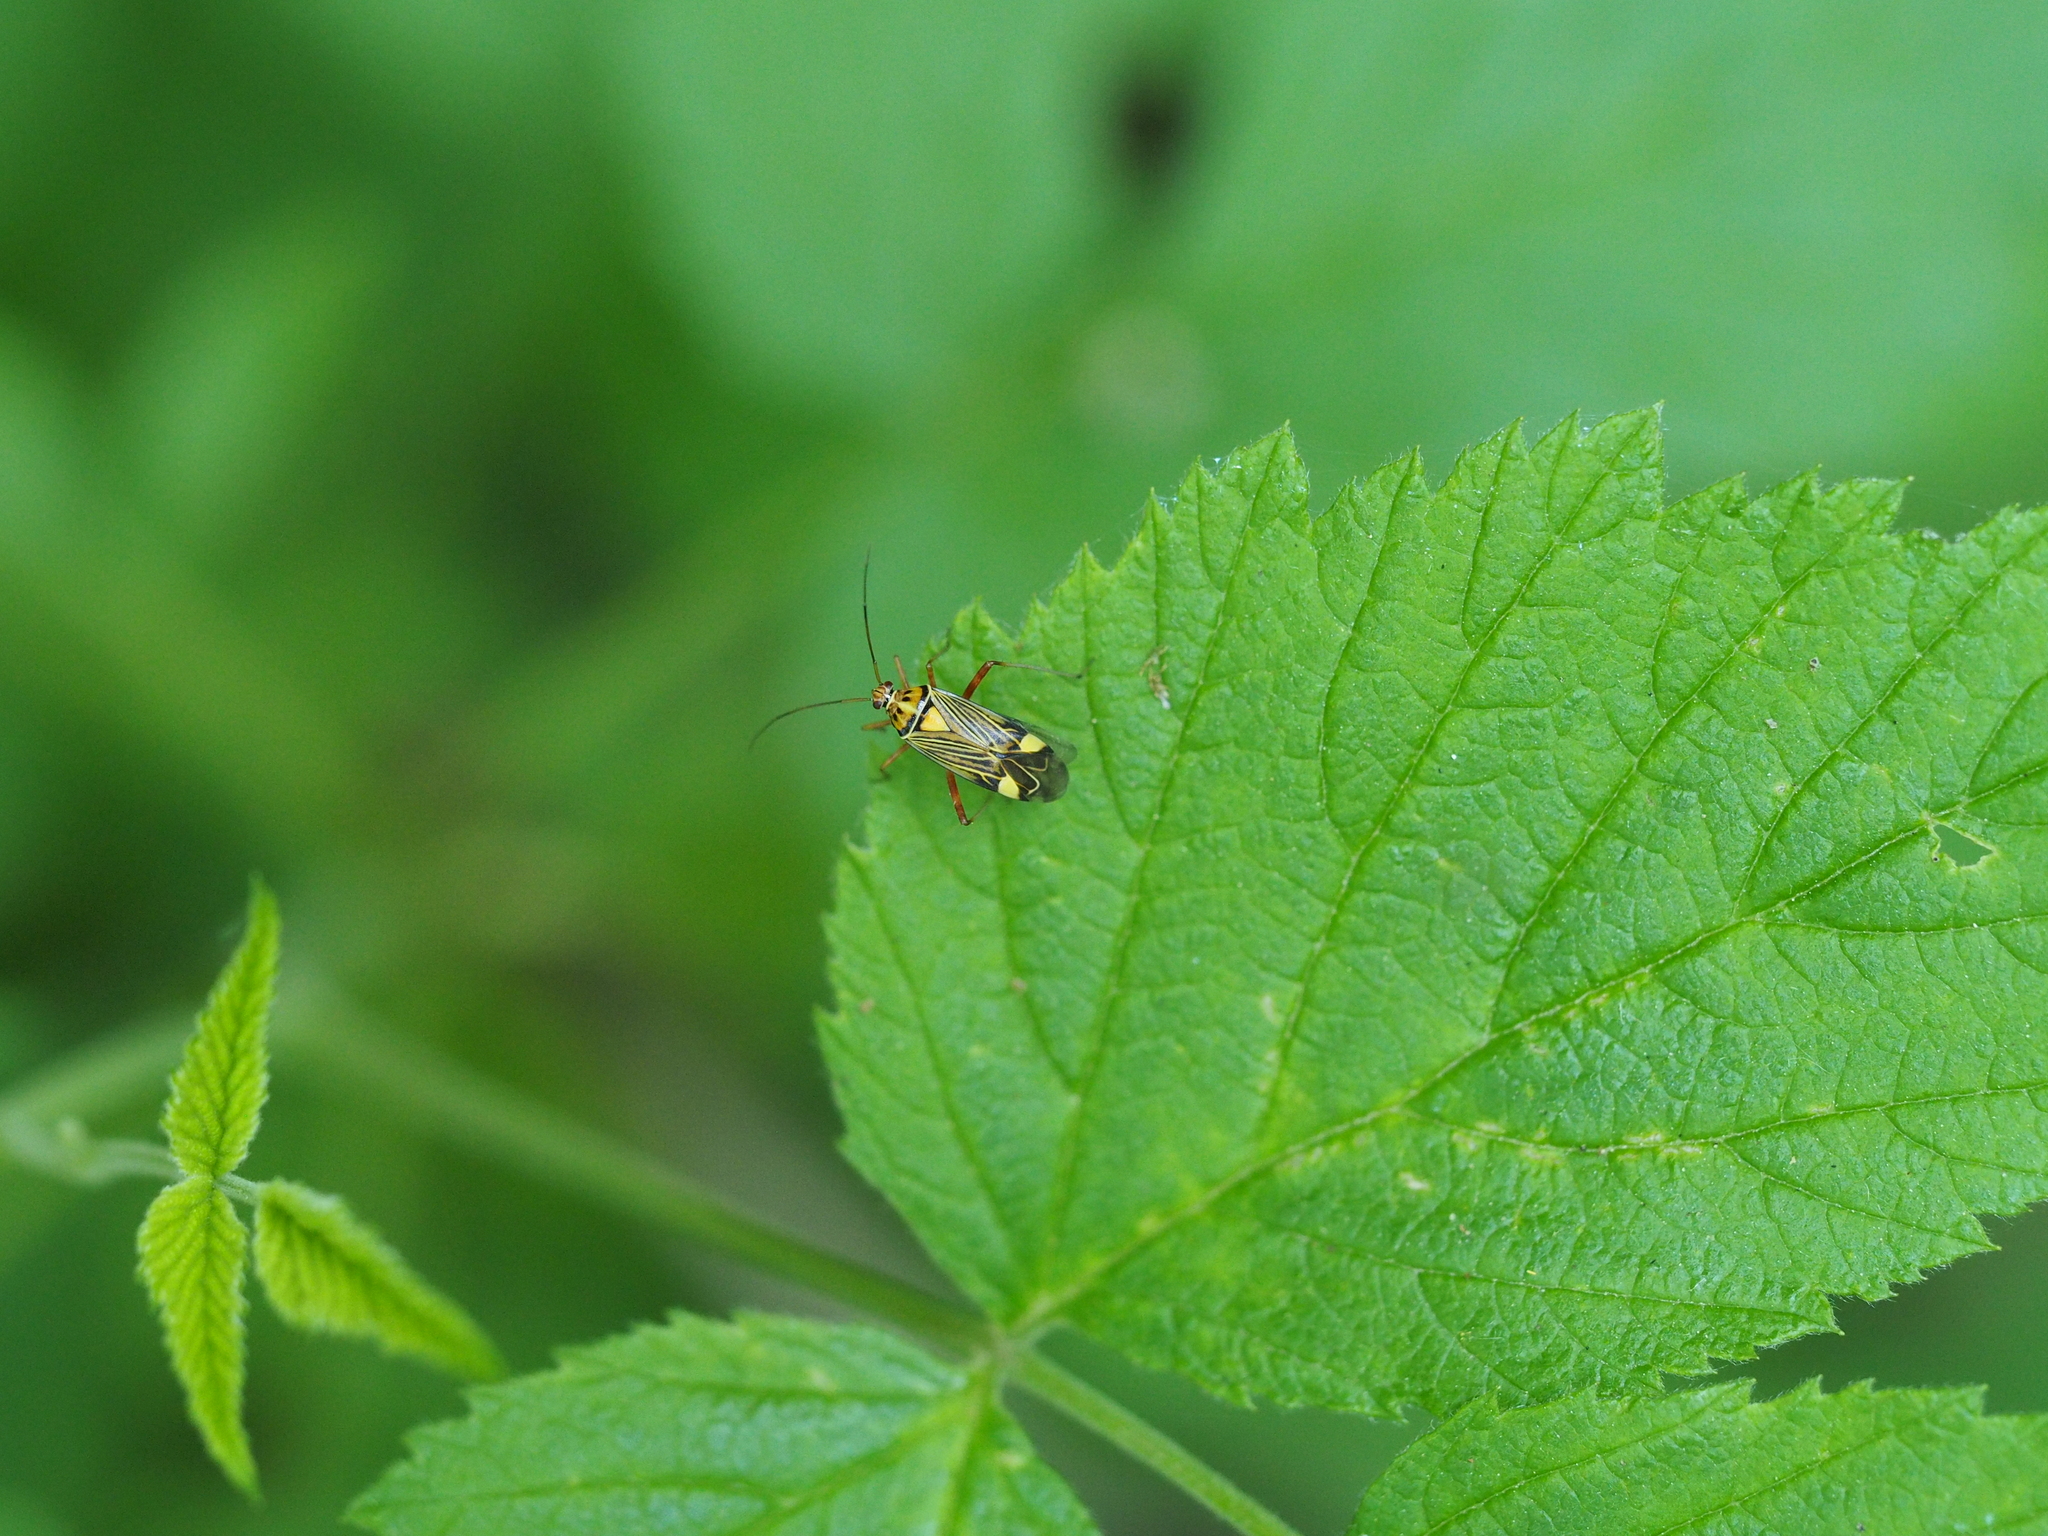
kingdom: Animalia
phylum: Arthropoda
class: Insecta
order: Hemiptera
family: Miridae
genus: Rhabdomiris
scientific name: Rhabdomiris striatellus
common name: Plant bug
